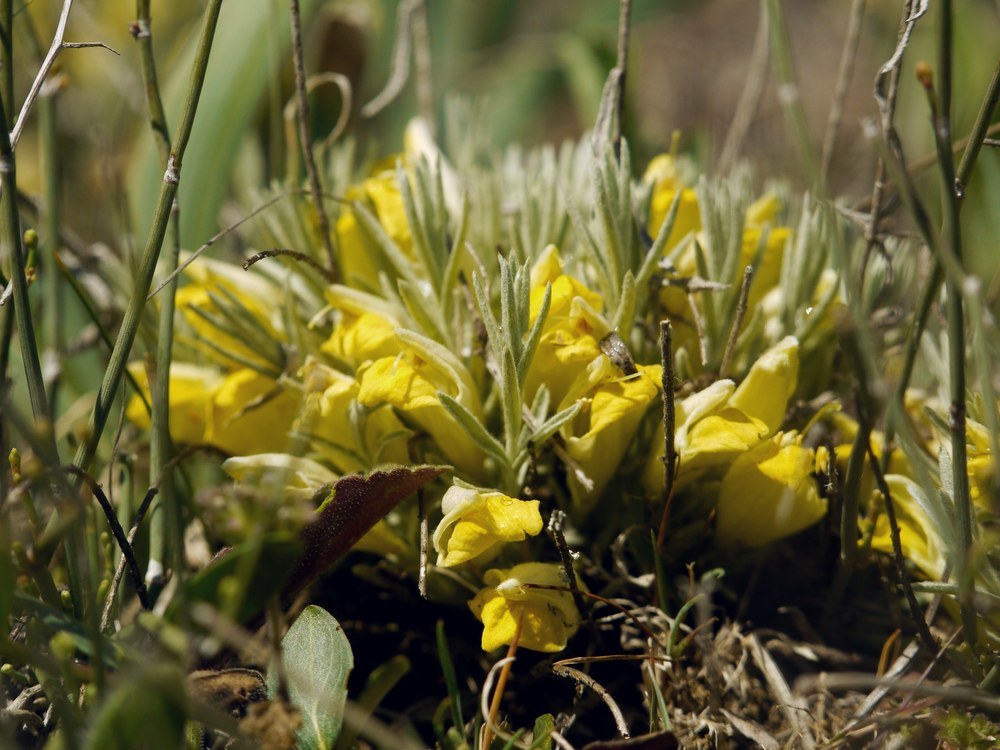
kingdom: Plantae
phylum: Tracheophyta
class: Magnoliopsida
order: Lamiales
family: Orobanchaceae
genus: Cymbaria
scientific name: Cymbaria borysthenica
